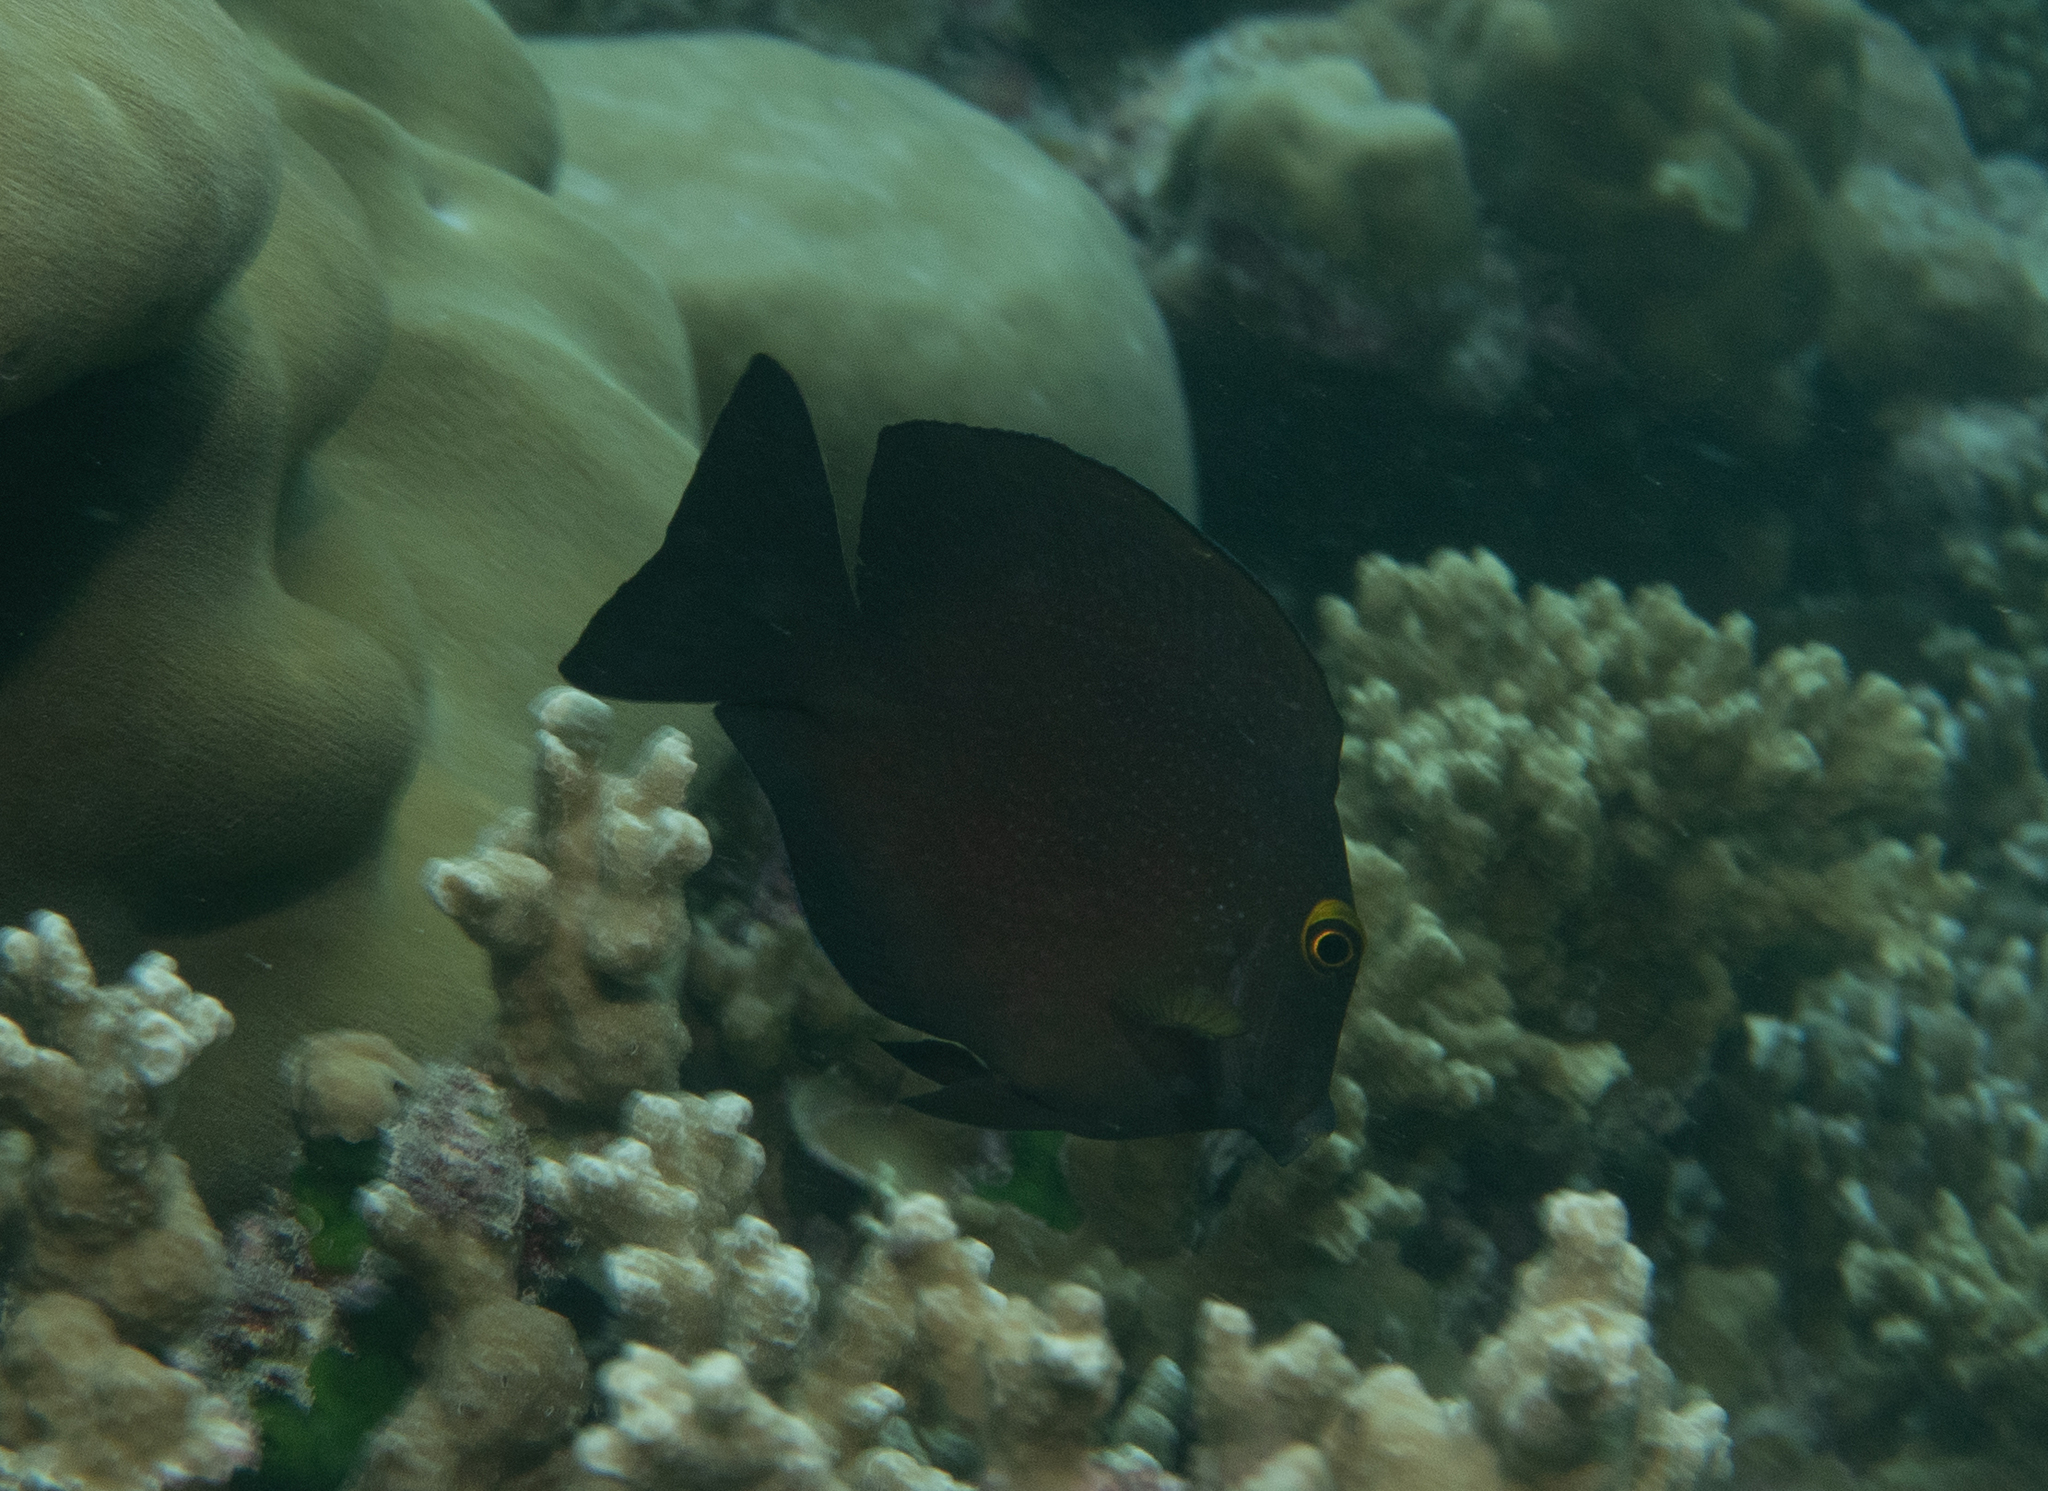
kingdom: Animalia
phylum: Chordata
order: Perciformes
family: Acanthuridae
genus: Ctenochaetus
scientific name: Ctenochaetus truncatus
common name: Indian gold-ring bristle-tooth
